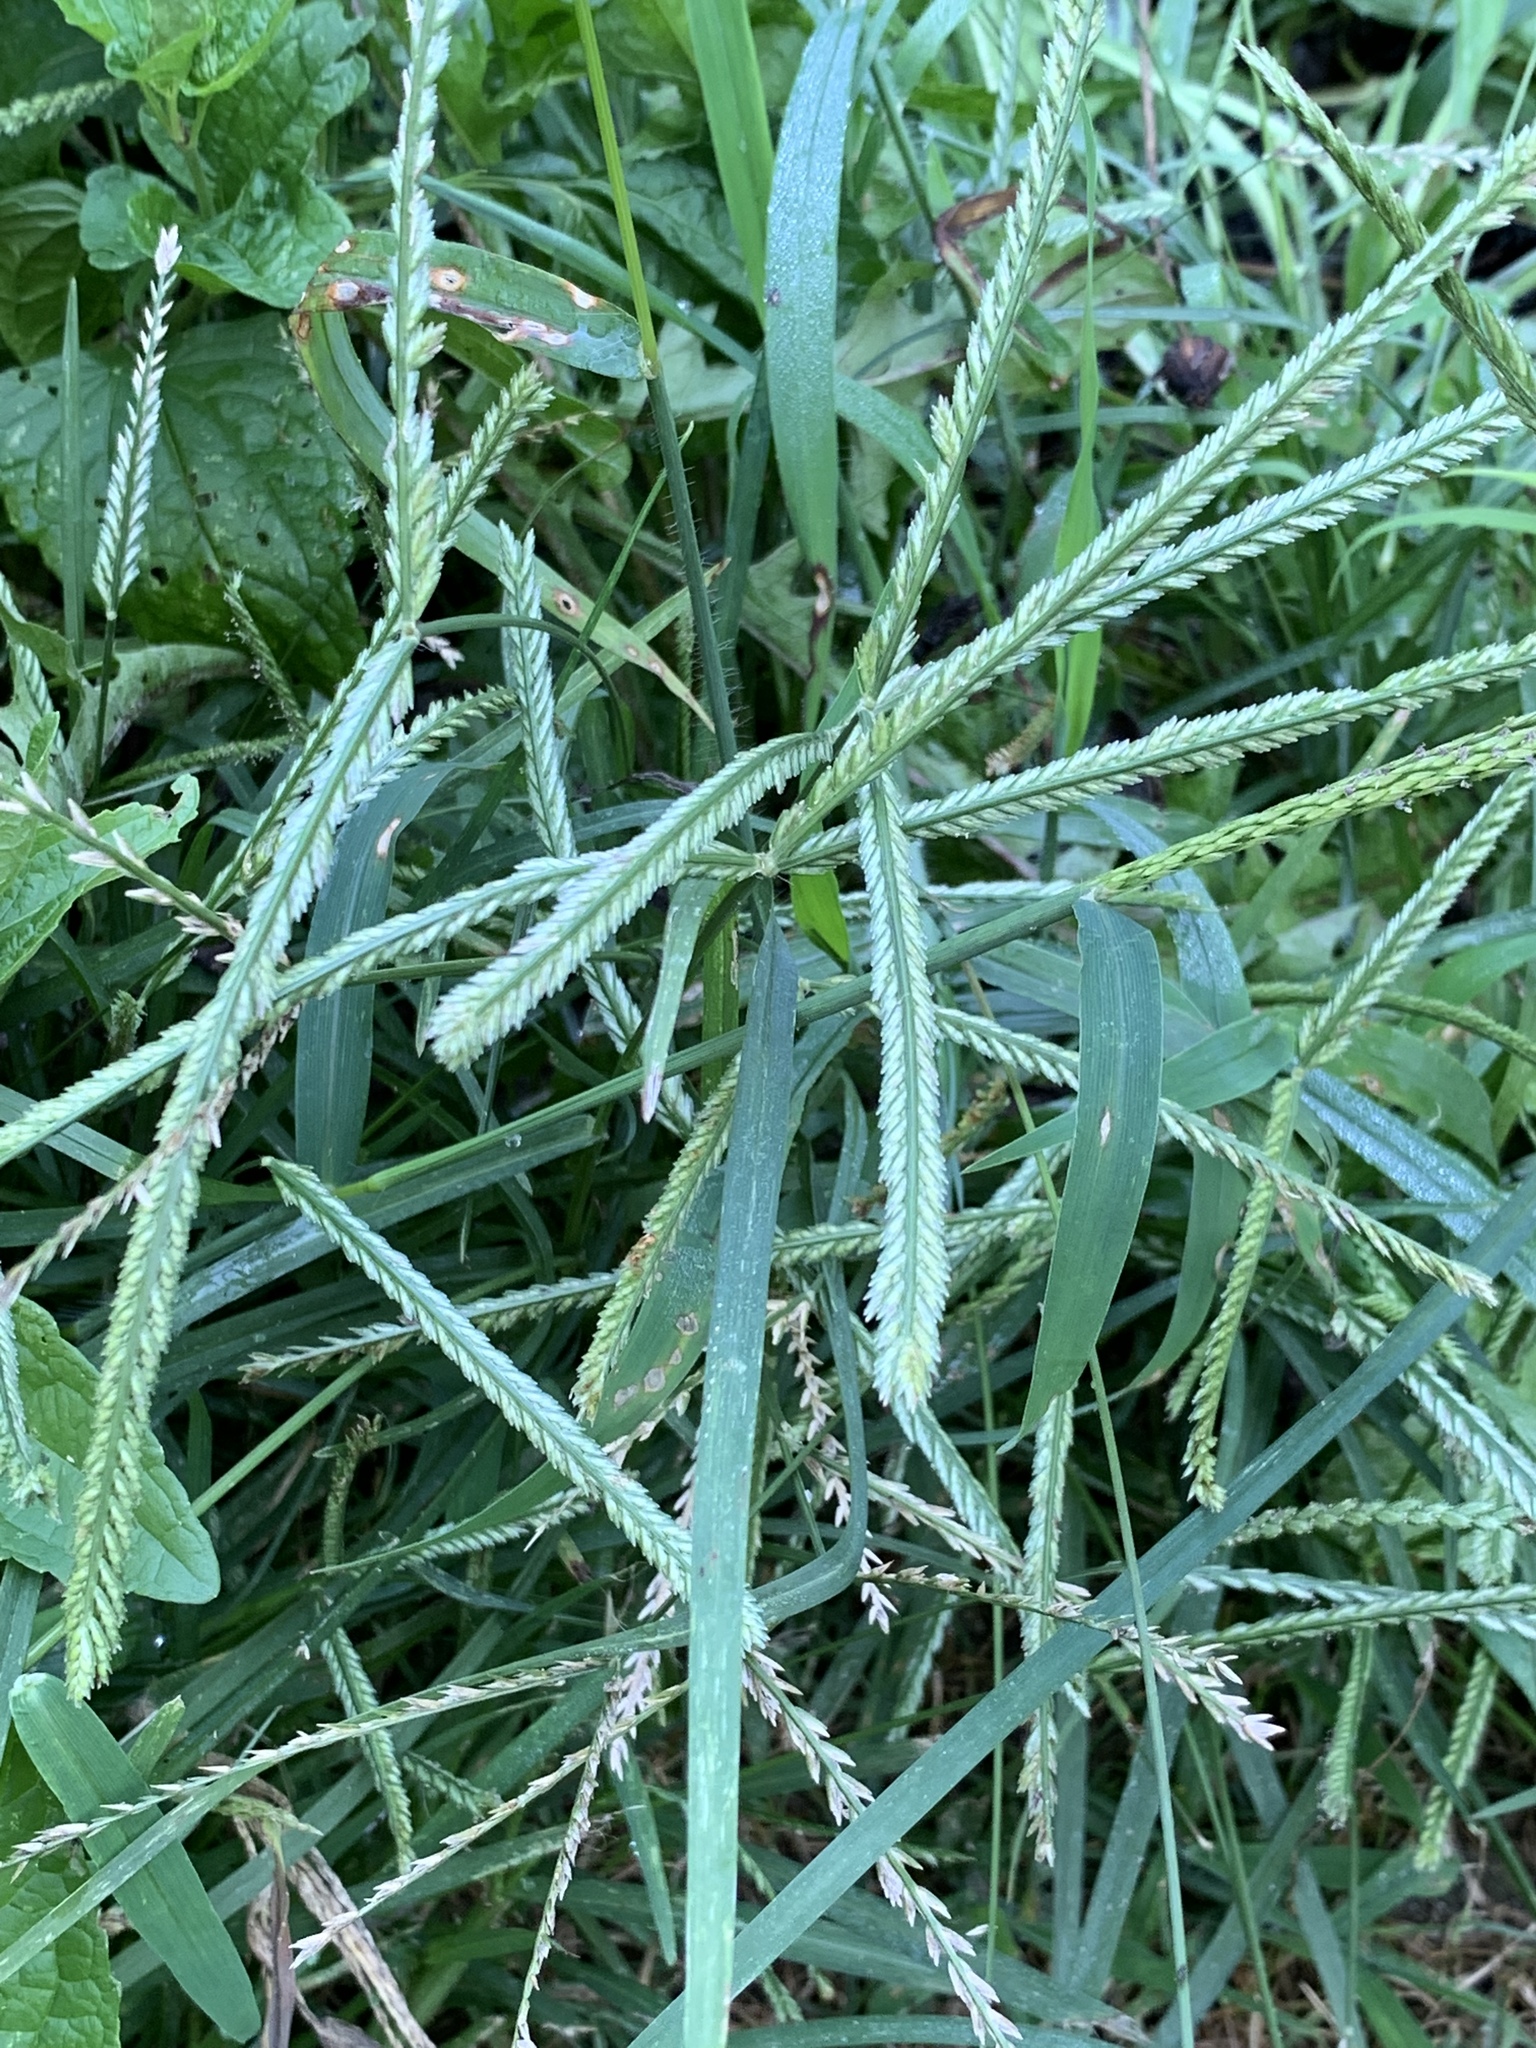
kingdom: Plantae
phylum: Tracheophyta
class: Liliopsida
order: Poales
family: Poaceae
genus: Eleusine
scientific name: Eleusine indica
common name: Yard-grass
